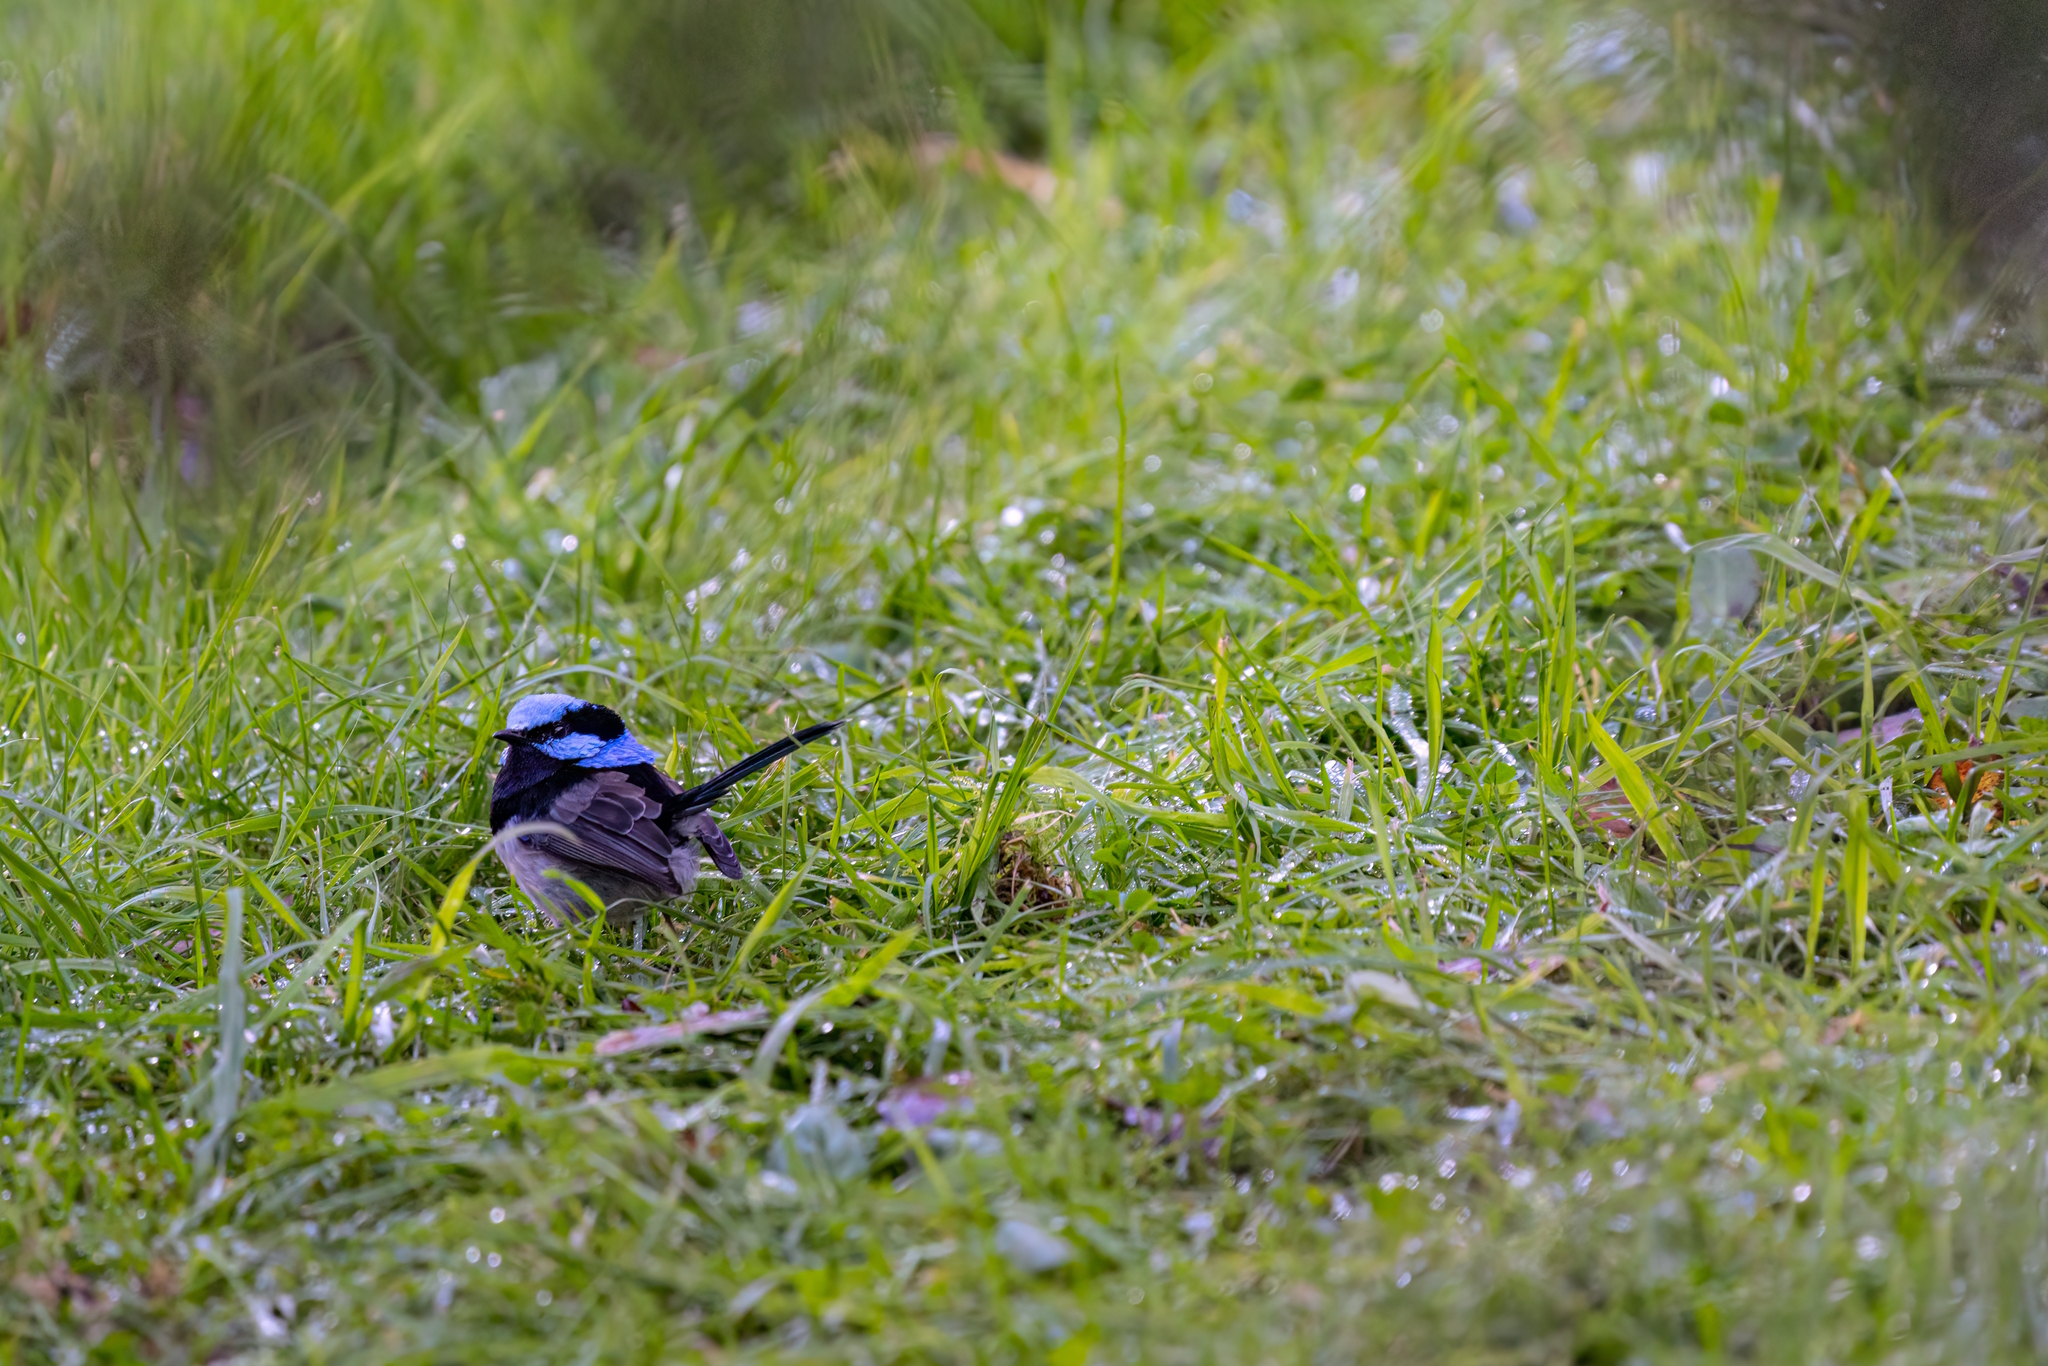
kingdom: Animalia
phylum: Chordata
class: Aves
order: Passeriformes
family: Maluridae
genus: Malurus
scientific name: Malurus cyaneus
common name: Superb fairywren
